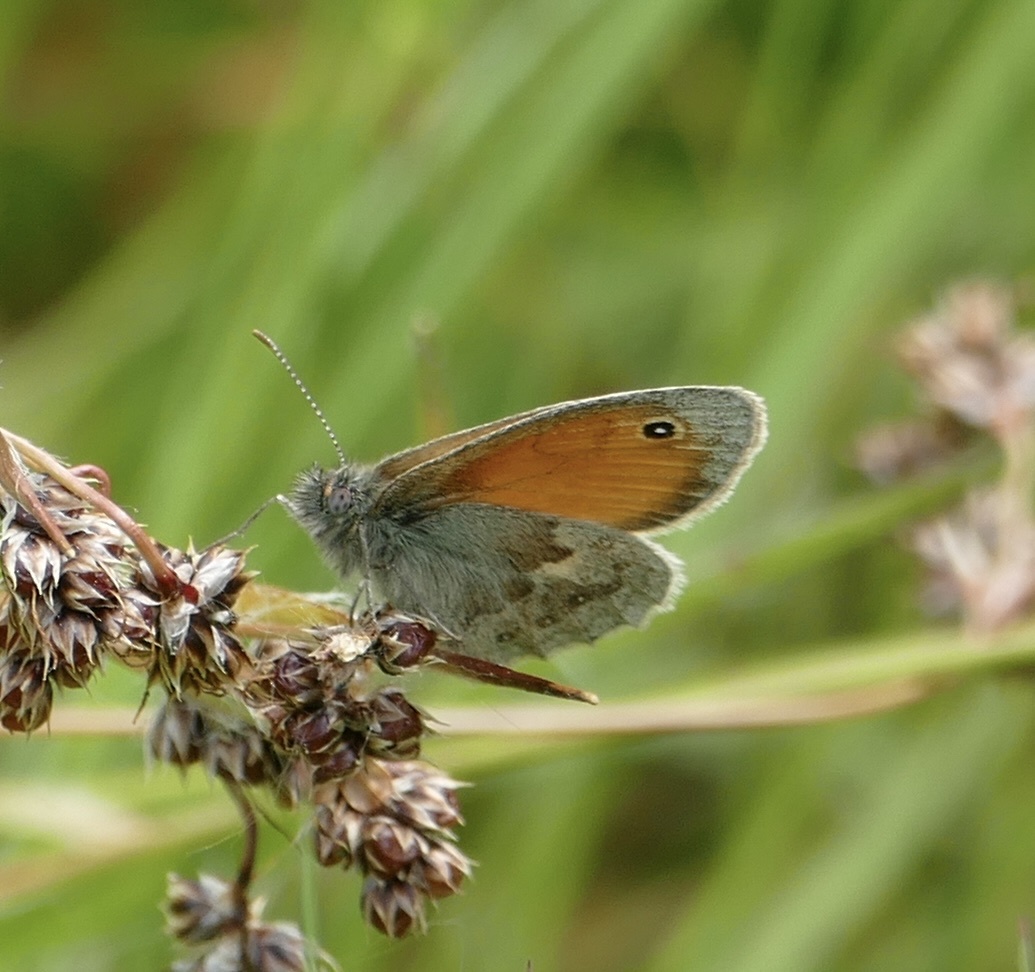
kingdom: Animalia
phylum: Arthropoda
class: Insecta
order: Lepidoptera
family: Nymphalidae
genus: Coenonympha
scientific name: Coenonympha pamphilus
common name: Small heath
